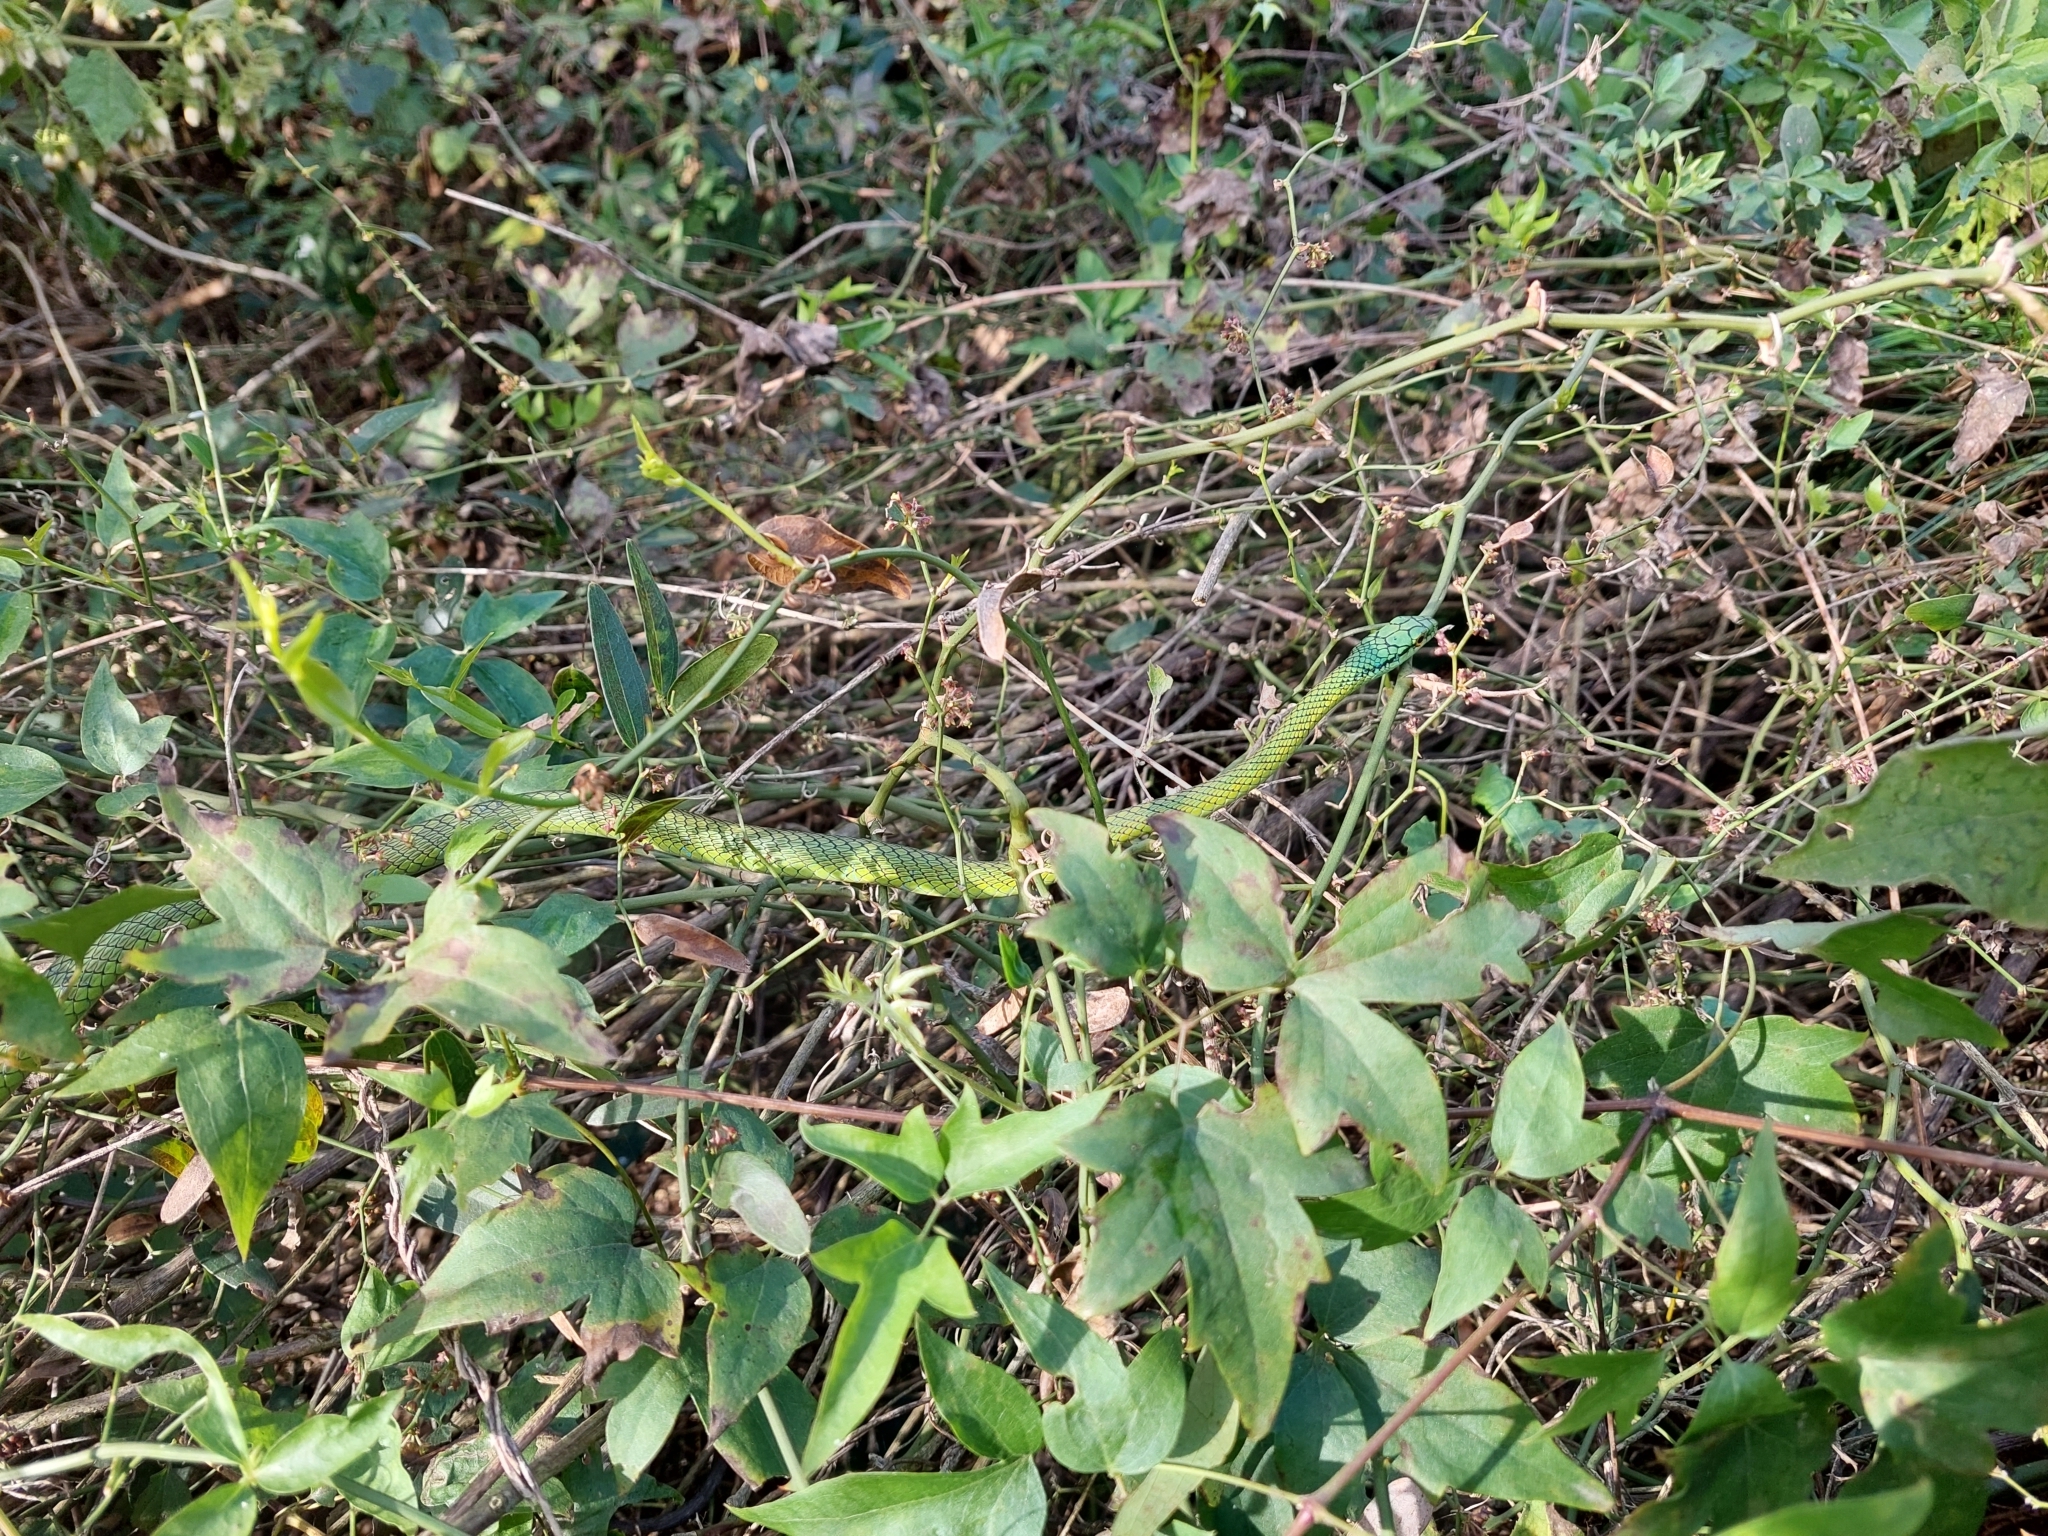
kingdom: Animalia
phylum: Chordata
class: Squamata
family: Colubridae
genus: Leptophis
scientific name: Leptophis ahaetulla
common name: Parrot snake
